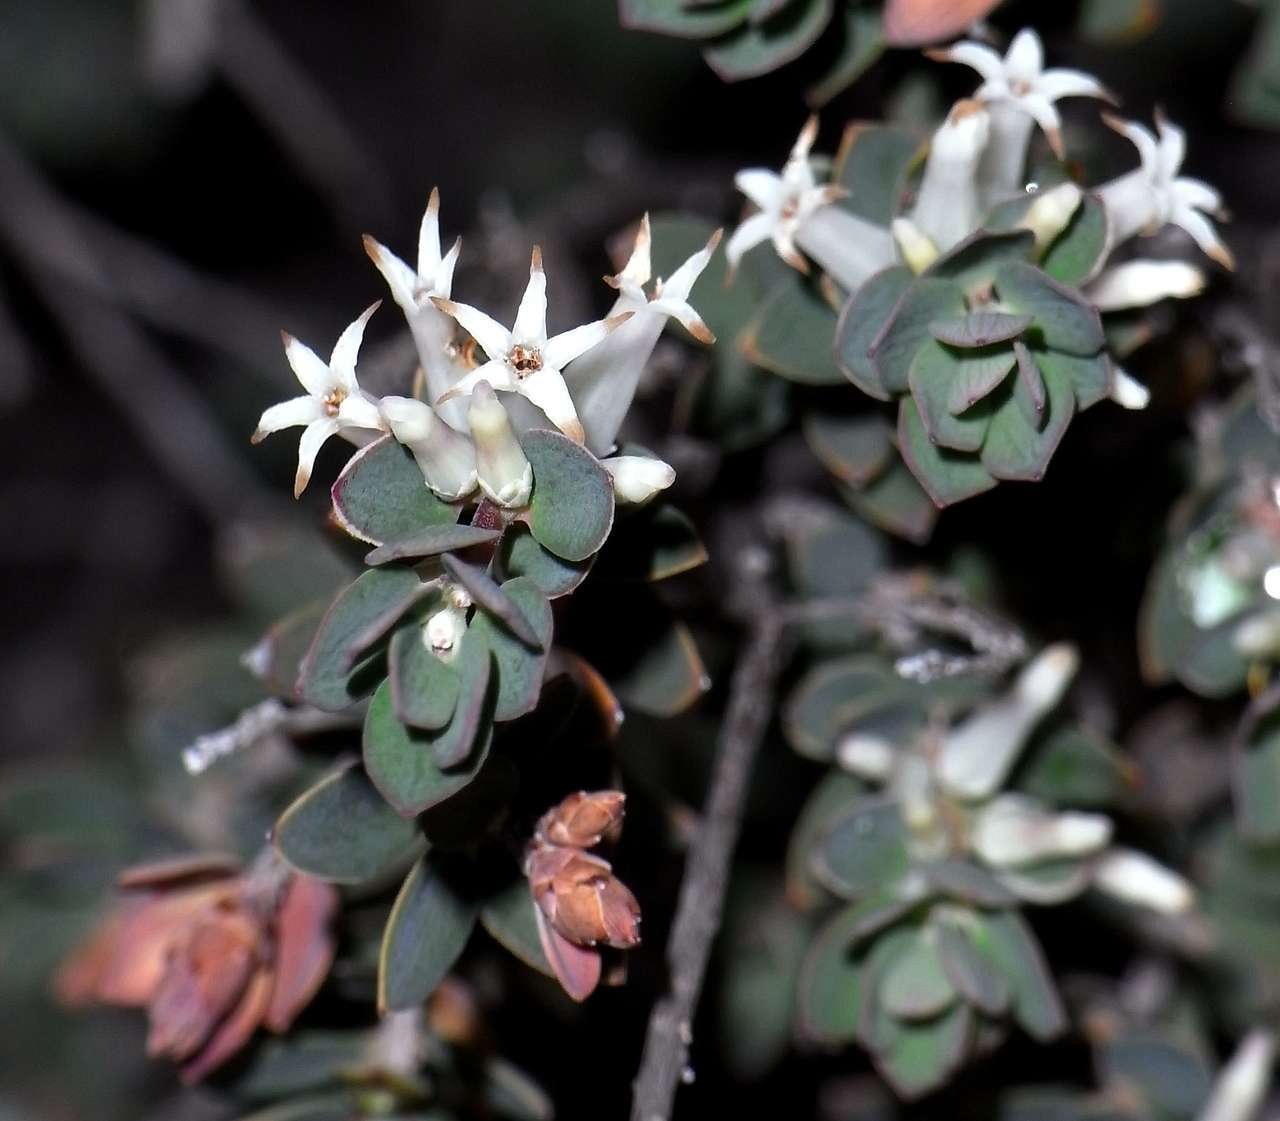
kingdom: Plantae
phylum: Tracheophyta
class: Magnoliopsida
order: Ericales
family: Ericaceae
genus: Brachyloma
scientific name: Brachyloma daphnoides
